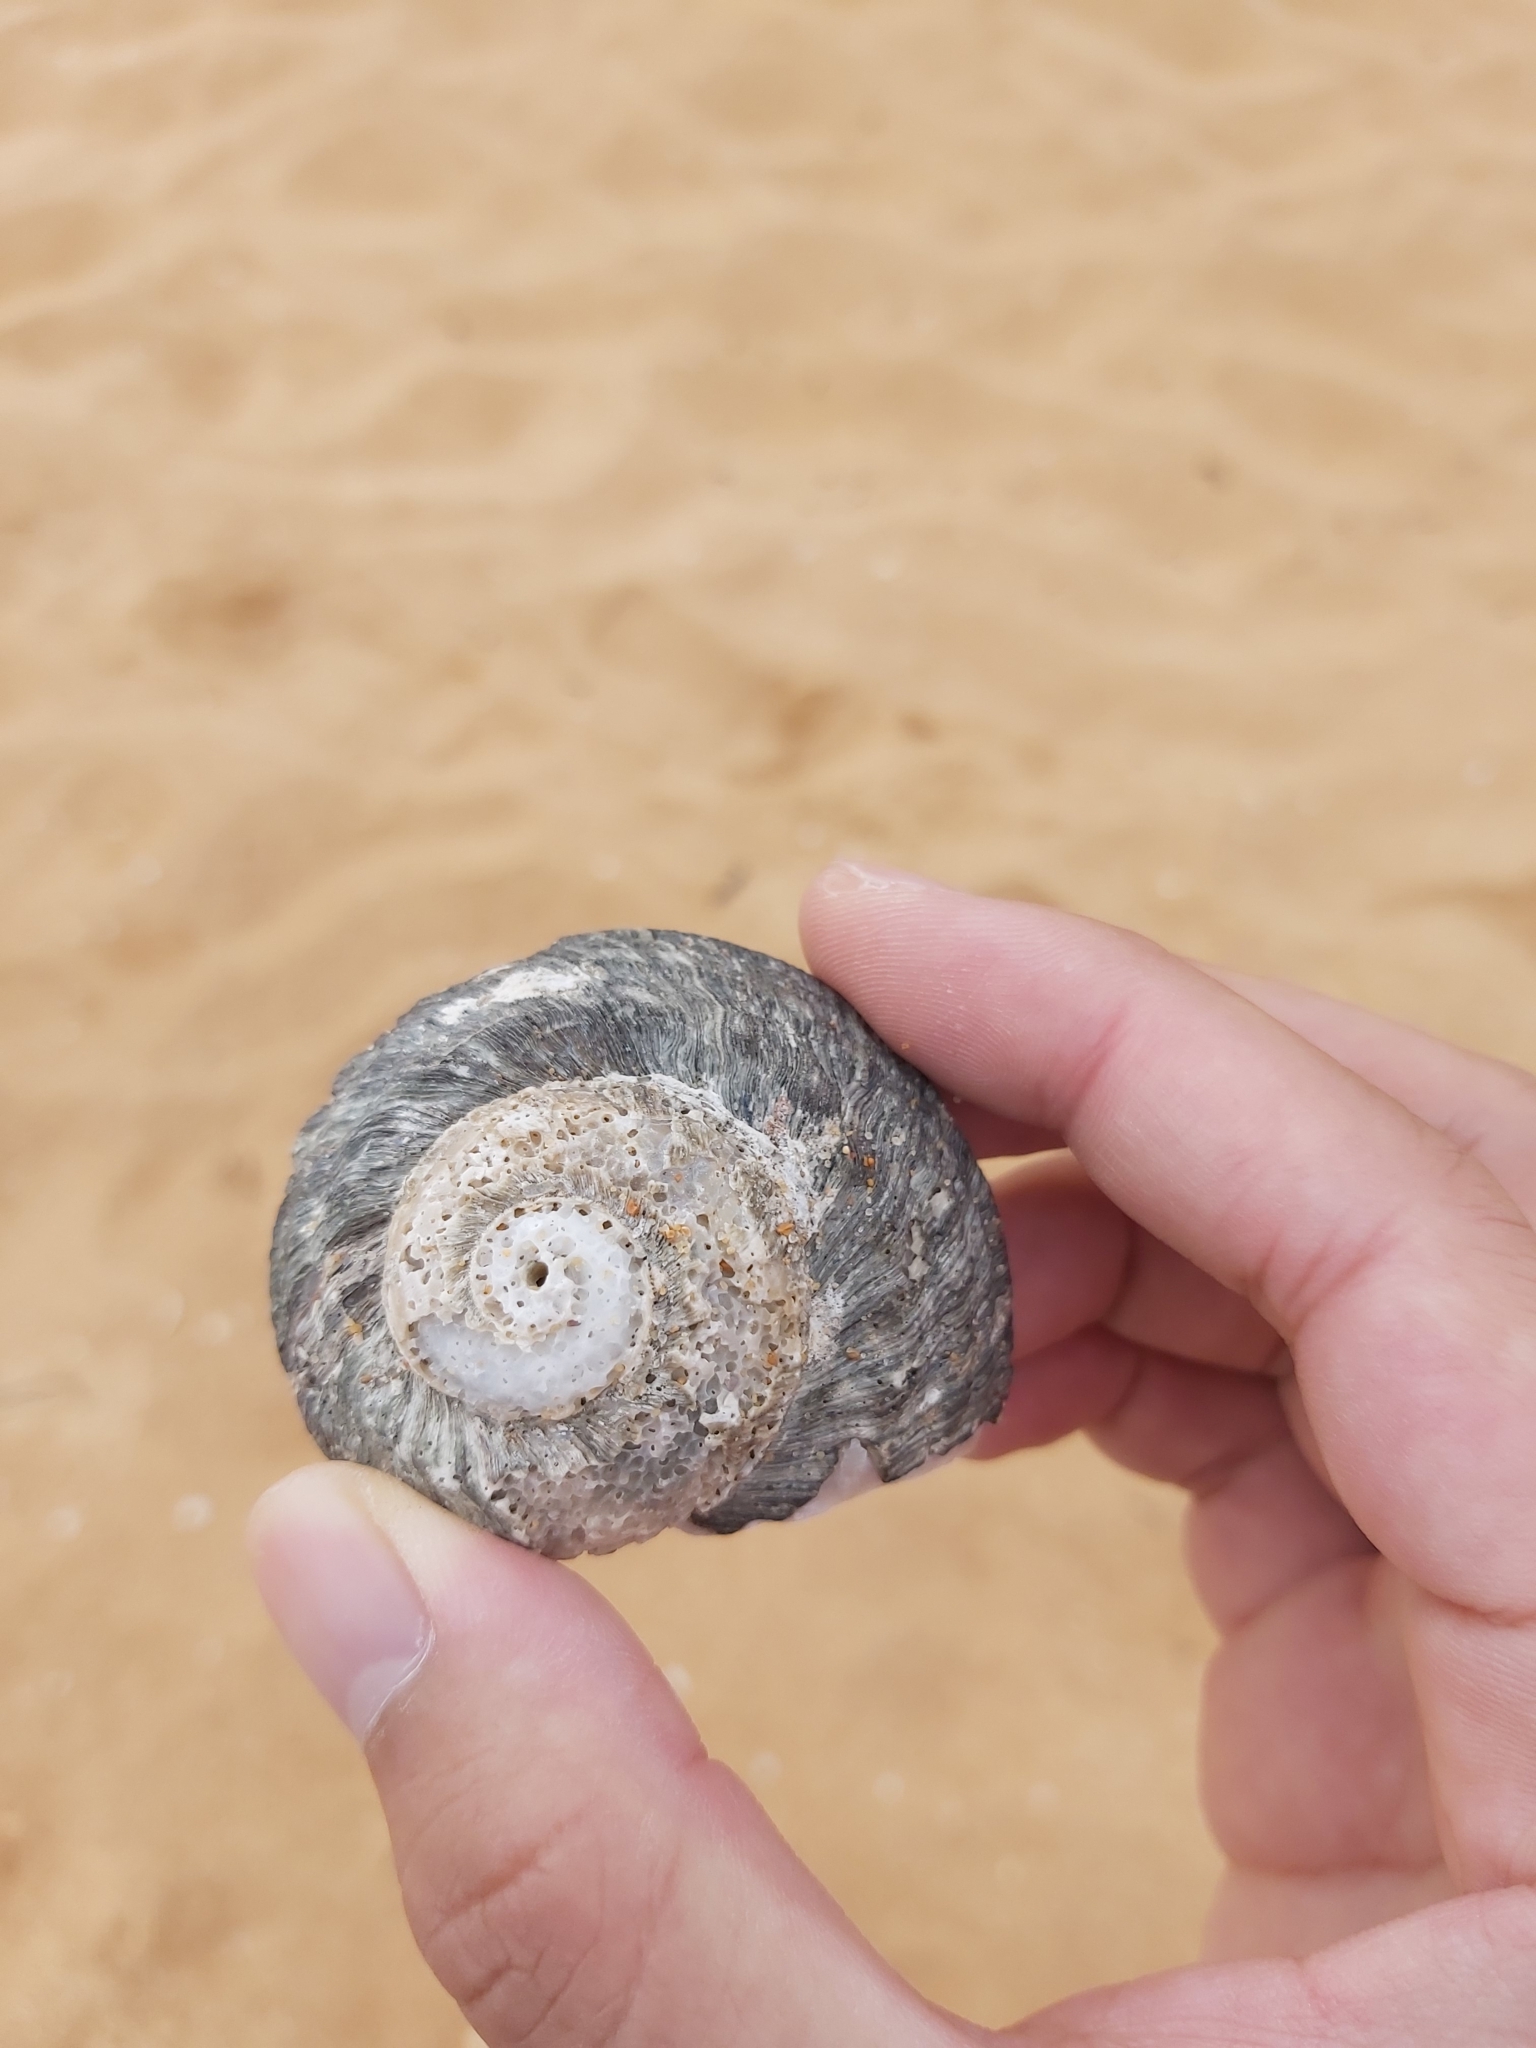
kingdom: Animalia
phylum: Mollusca
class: Gastropoda
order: Trochida
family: Turbinidae
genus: Lunella
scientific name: Lunella torquata
